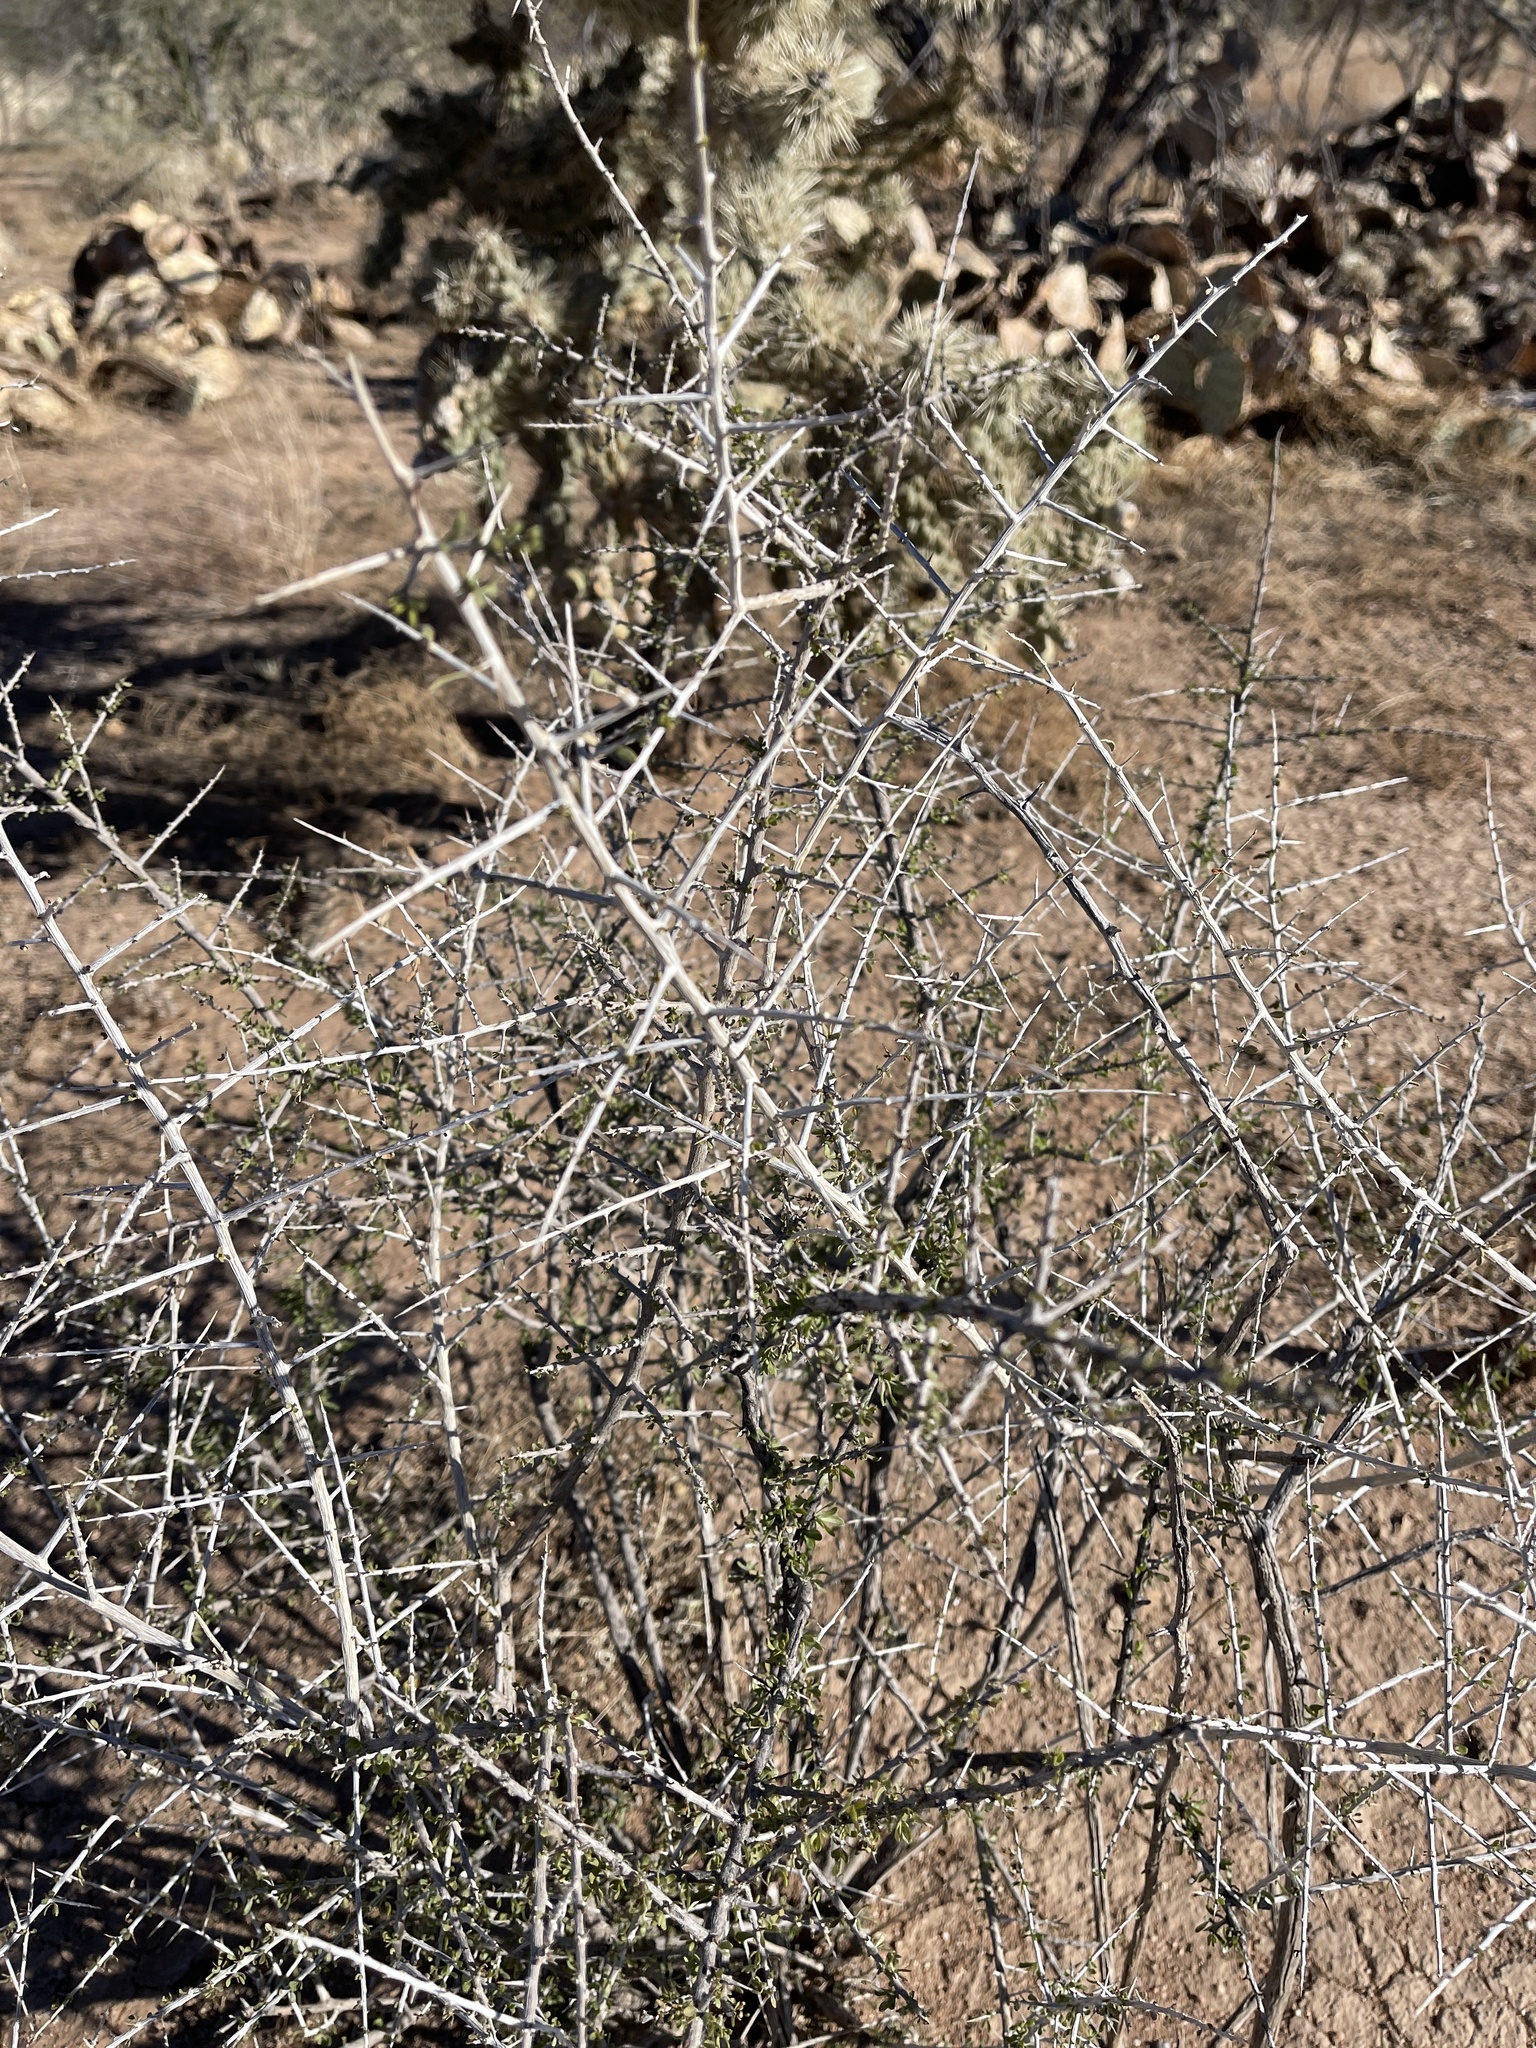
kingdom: Plantae
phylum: Tracheophyta
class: Magnoliopsida
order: Solanales
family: Solanaceae
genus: Lycium
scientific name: Lycium andersonii
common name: Water-jacket
